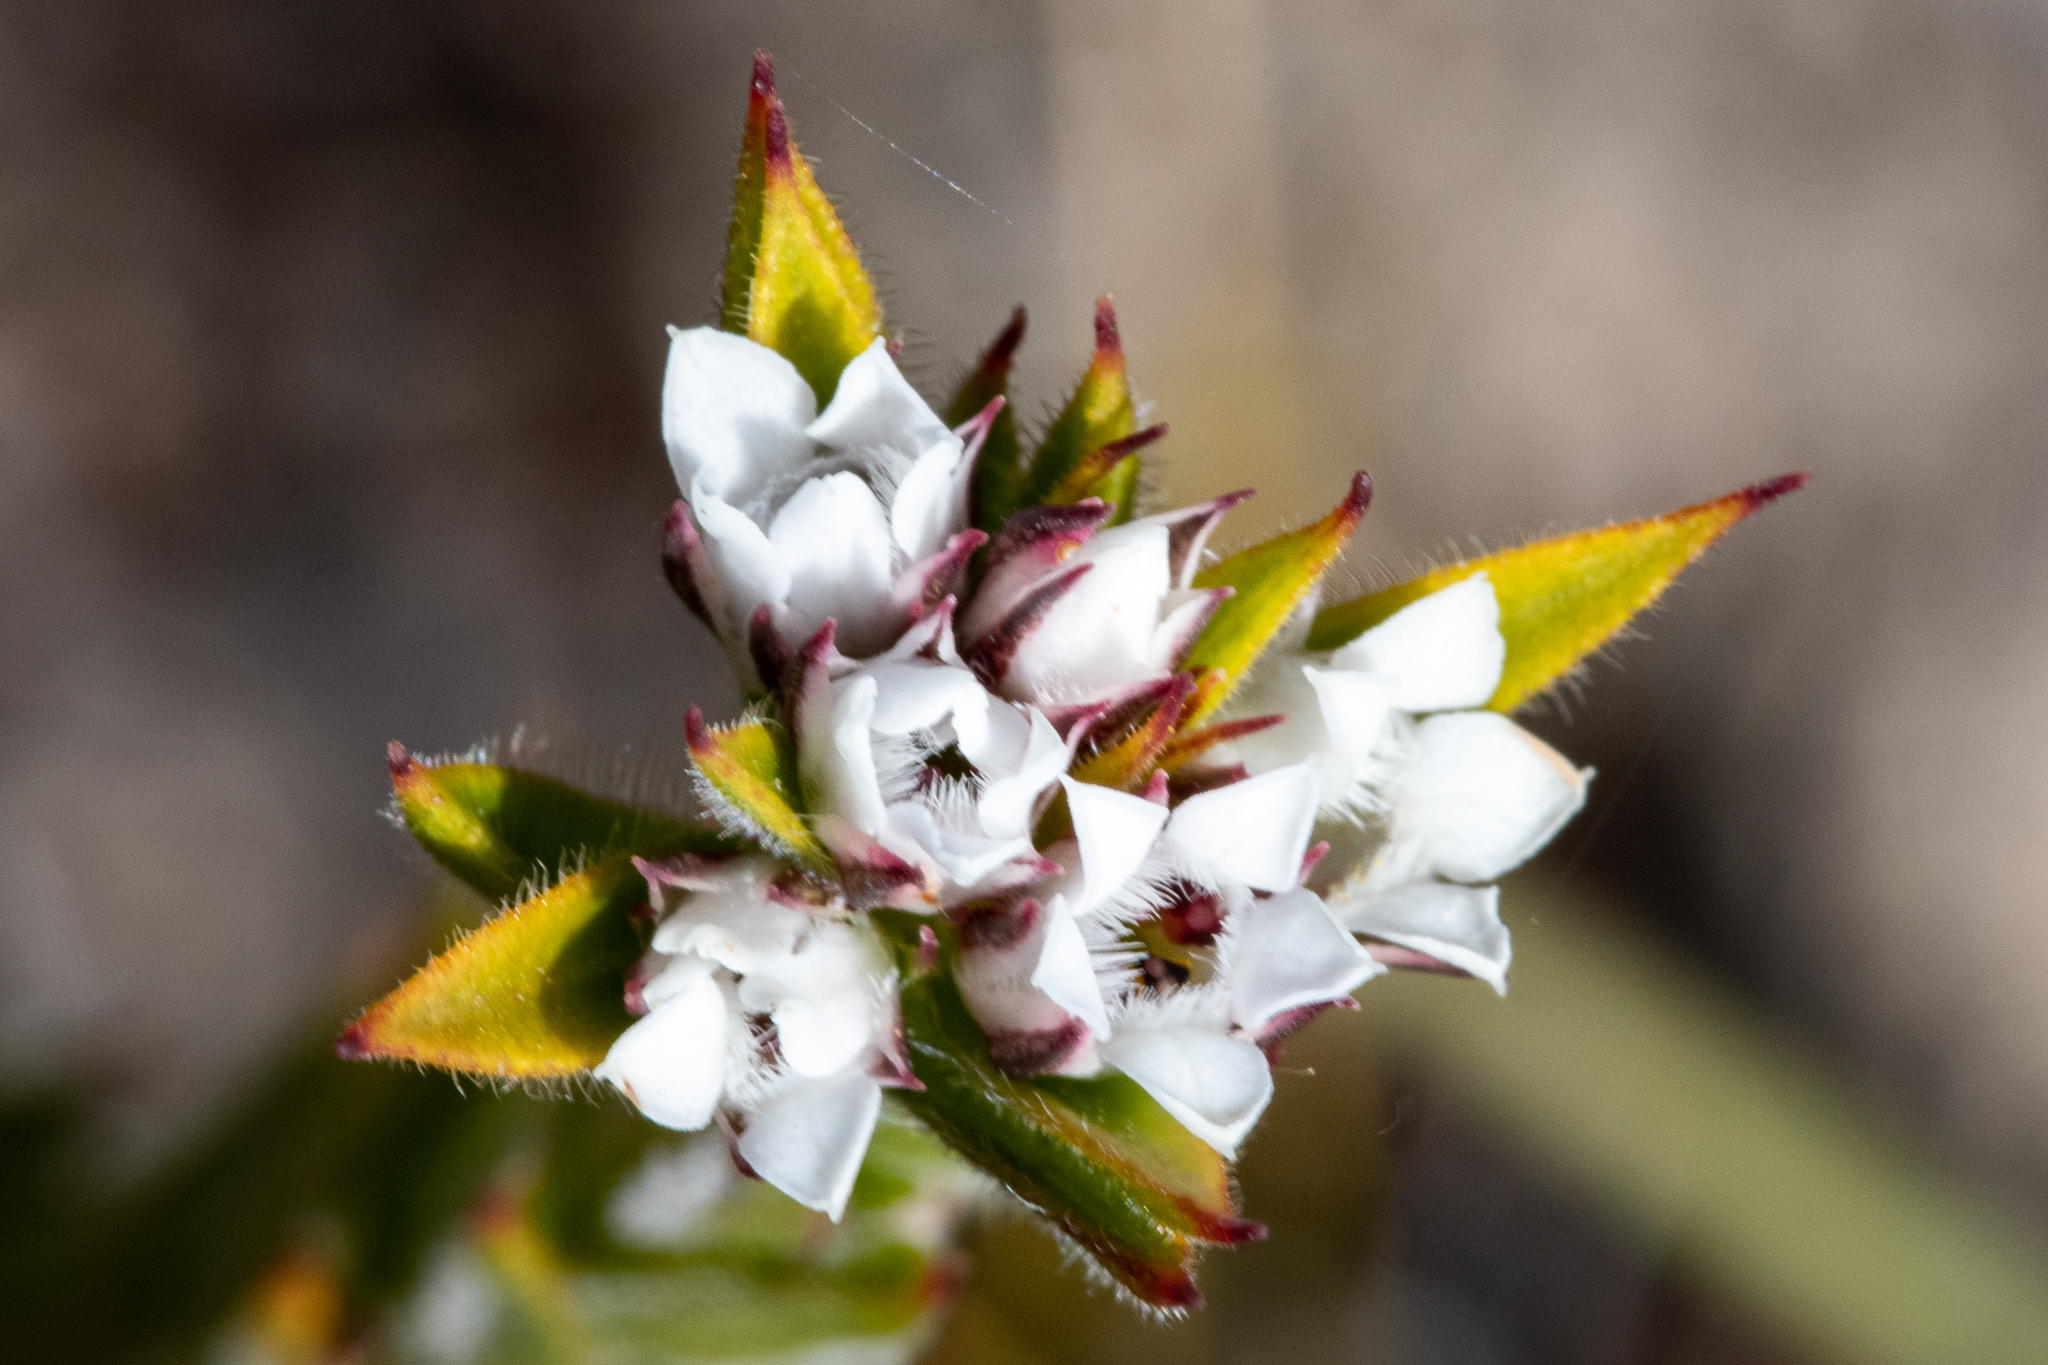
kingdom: Plantae
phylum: Tracheophyta
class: Magnoliopsida
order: Sapindales
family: Rutaceae
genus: Euchaetis
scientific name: Euchaetis schlechteri
